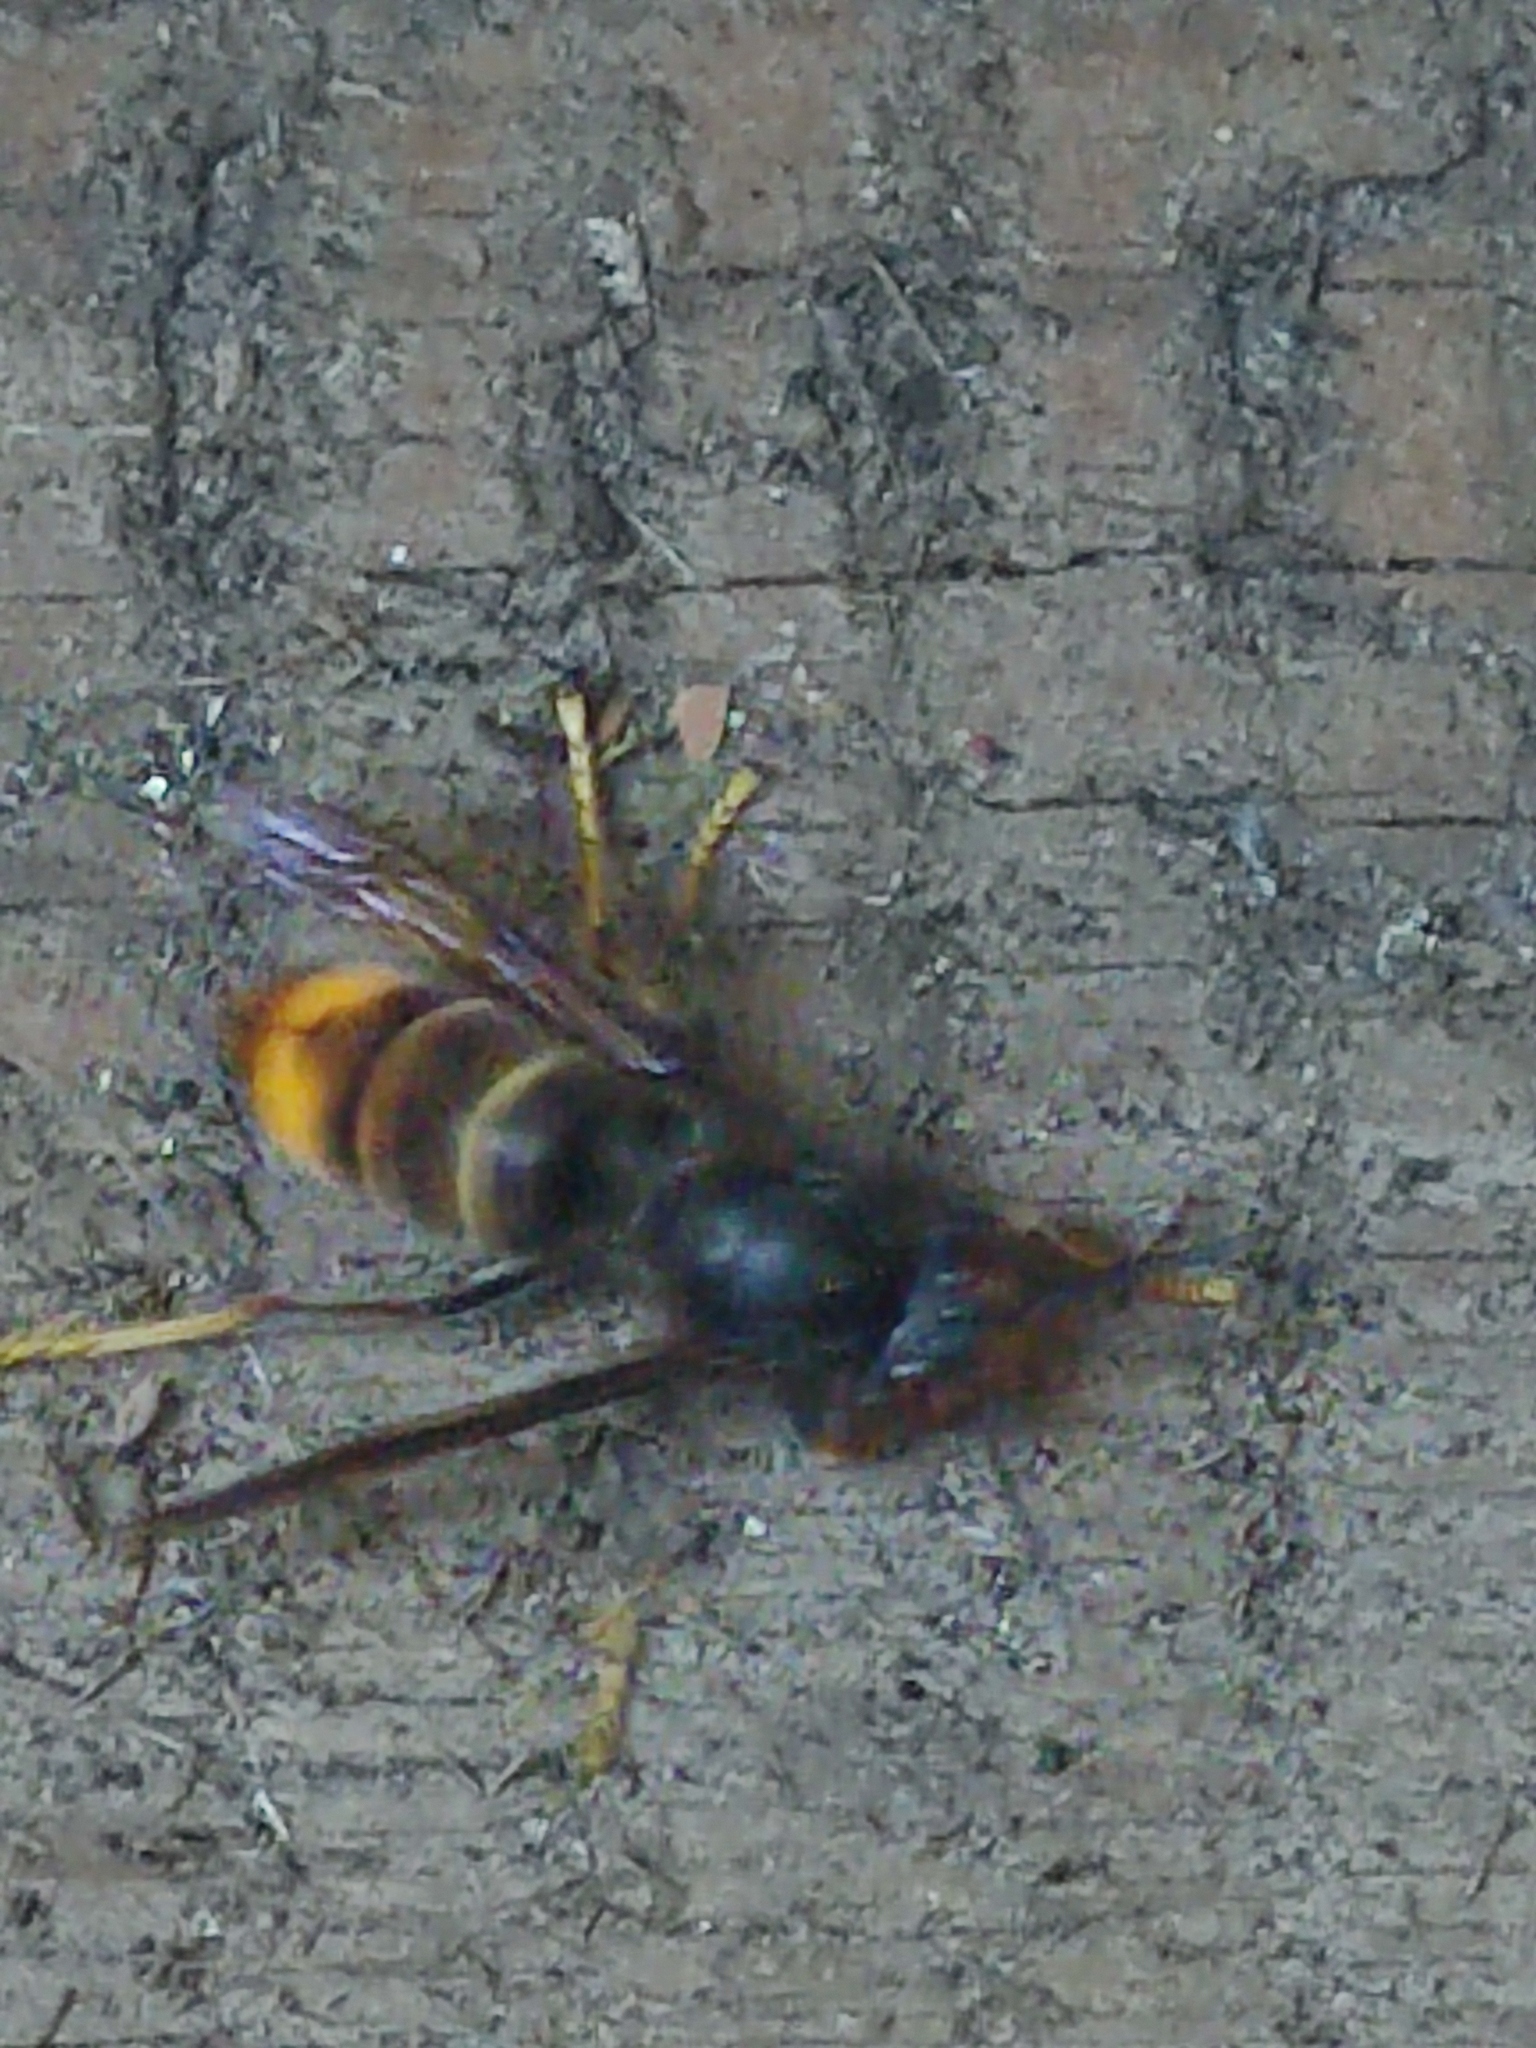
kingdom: Animalia
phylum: Arthropoda
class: Insecta
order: Hymenoptera
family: Vespidae
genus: Vespa
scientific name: Vespa velutina
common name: Asian hornet
